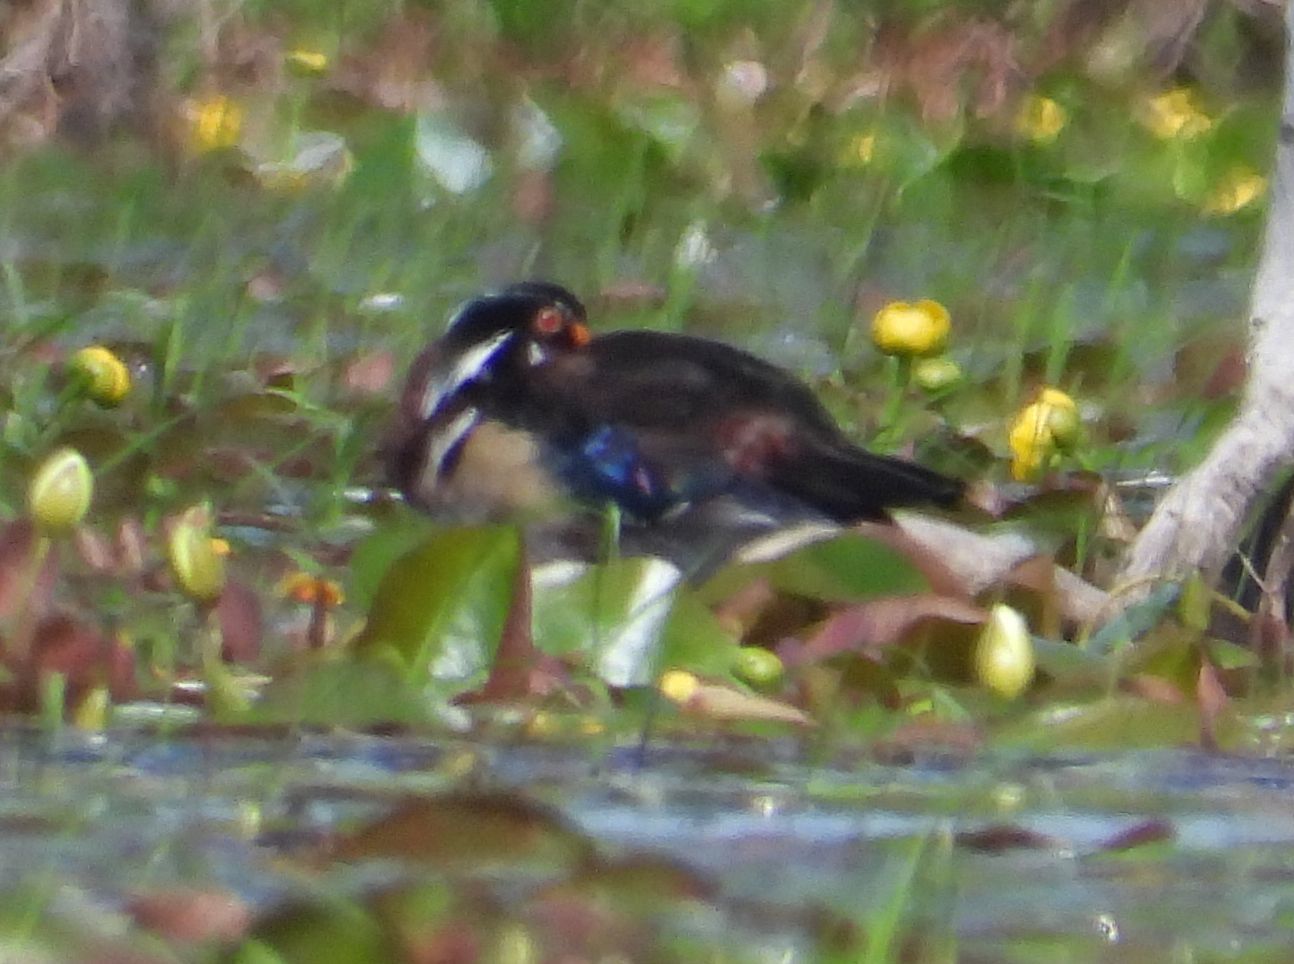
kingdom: Animalia
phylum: Chordata
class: Aves
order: Anseriformes
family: Anatidae
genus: Aix
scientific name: Aix sponsa
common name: Wood duck
